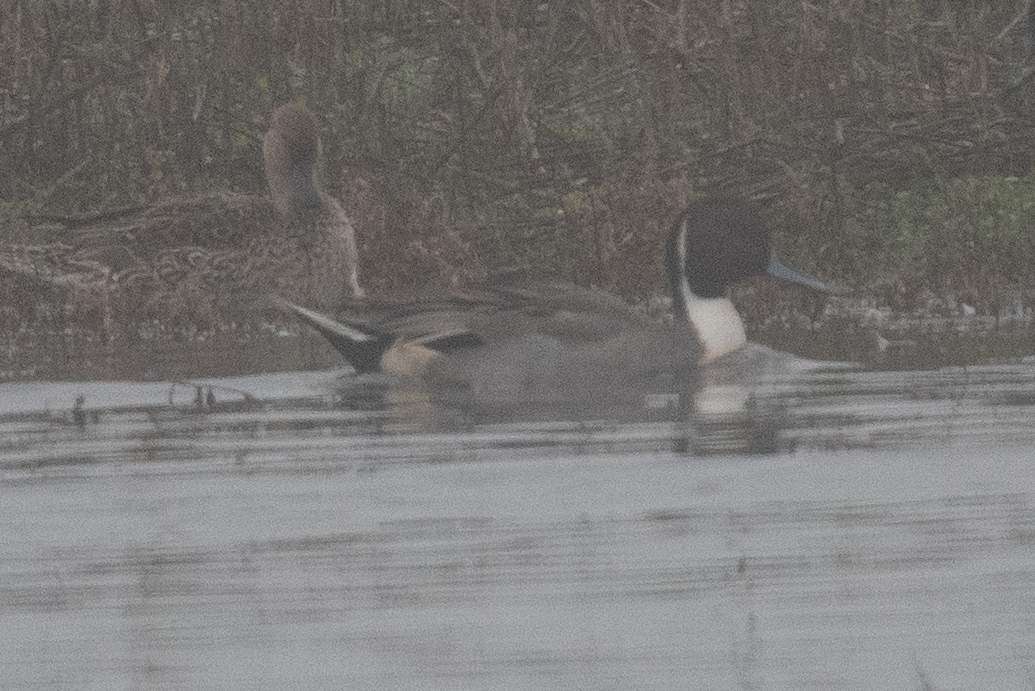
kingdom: Animalia
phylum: Chordata
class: Aves
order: Anseriformes
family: Anatidae
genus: Anas
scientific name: Anas acuta
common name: Northern pintail
